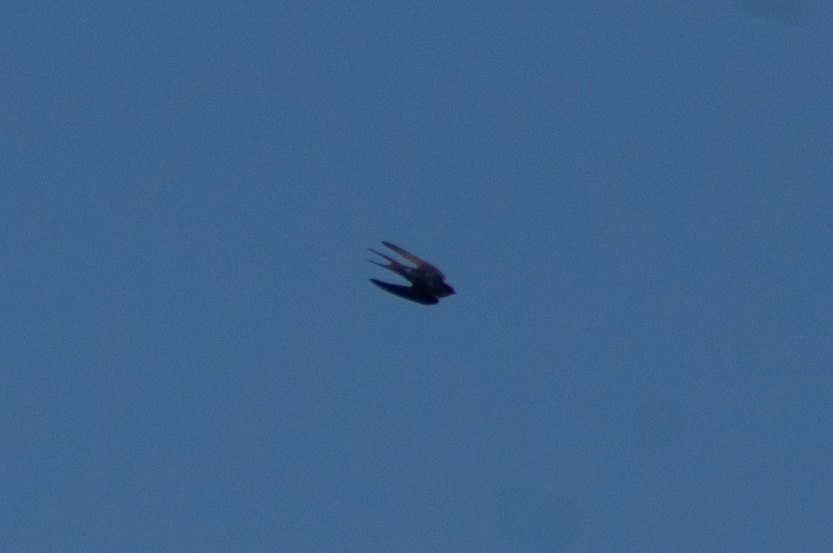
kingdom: Animalia
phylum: Chordata
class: Aves
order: Passeriformes
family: Hirundinidae
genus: Hirundo
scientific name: Hirundo rustica
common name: Barn swallow
